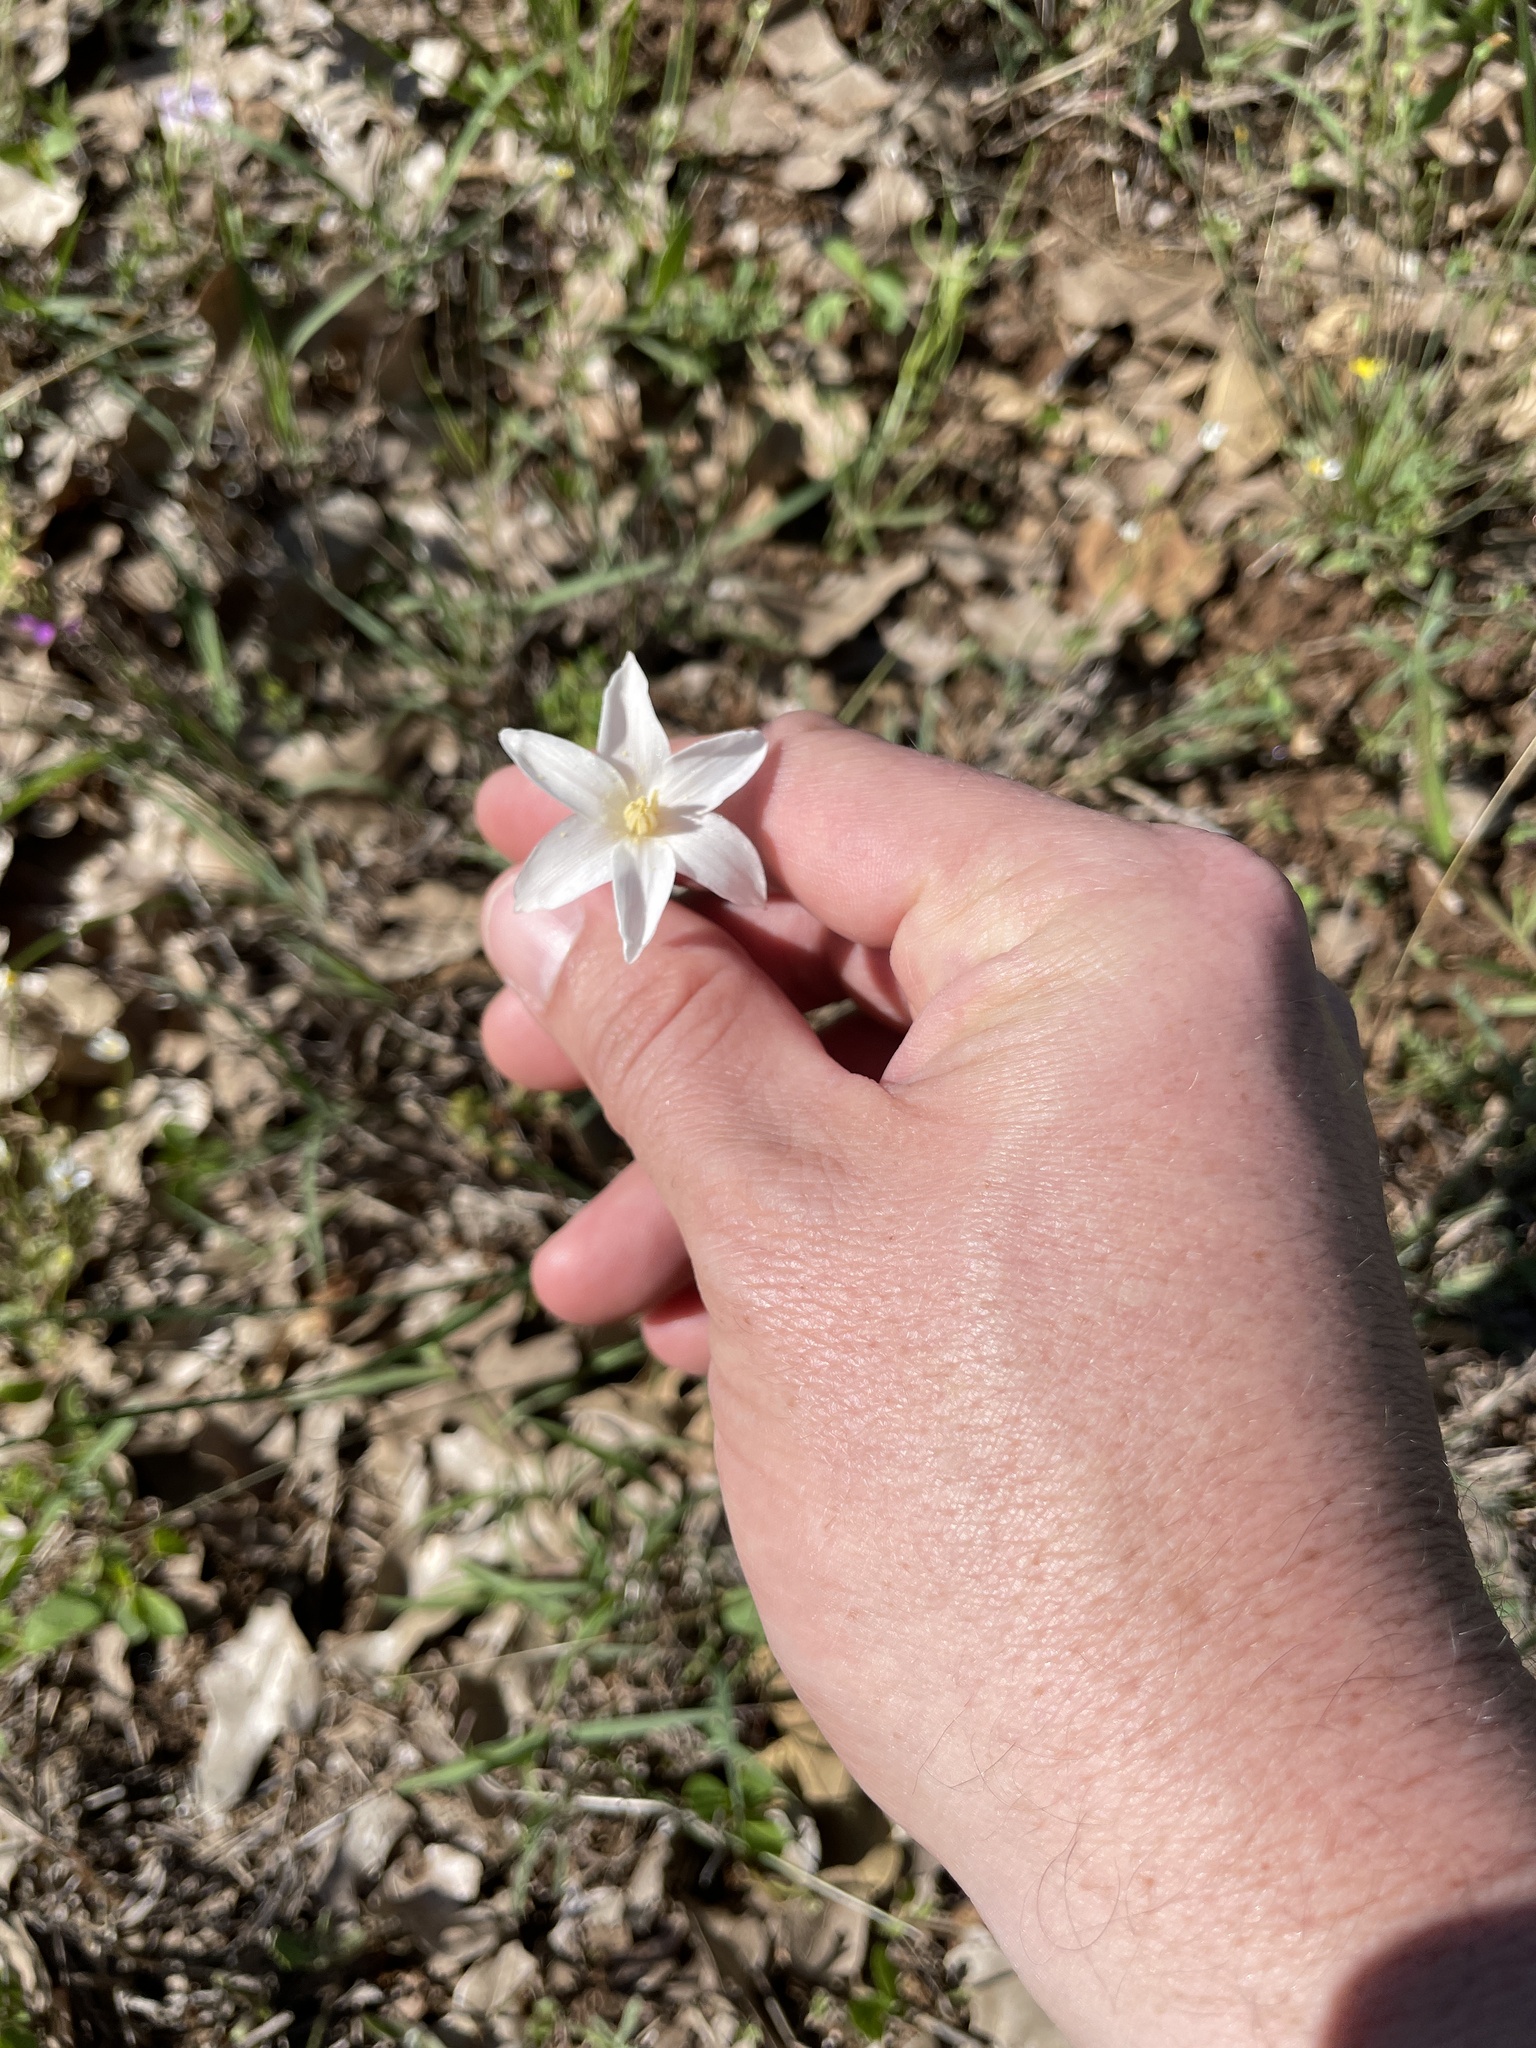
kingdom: Plantae
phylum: Tracheophyta
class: Liliopsida
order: Asparagales
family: Amaryllidaceae
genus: Zephyranthes
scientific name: Zephyranthes chlorosolen
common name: Evening rain-lily
